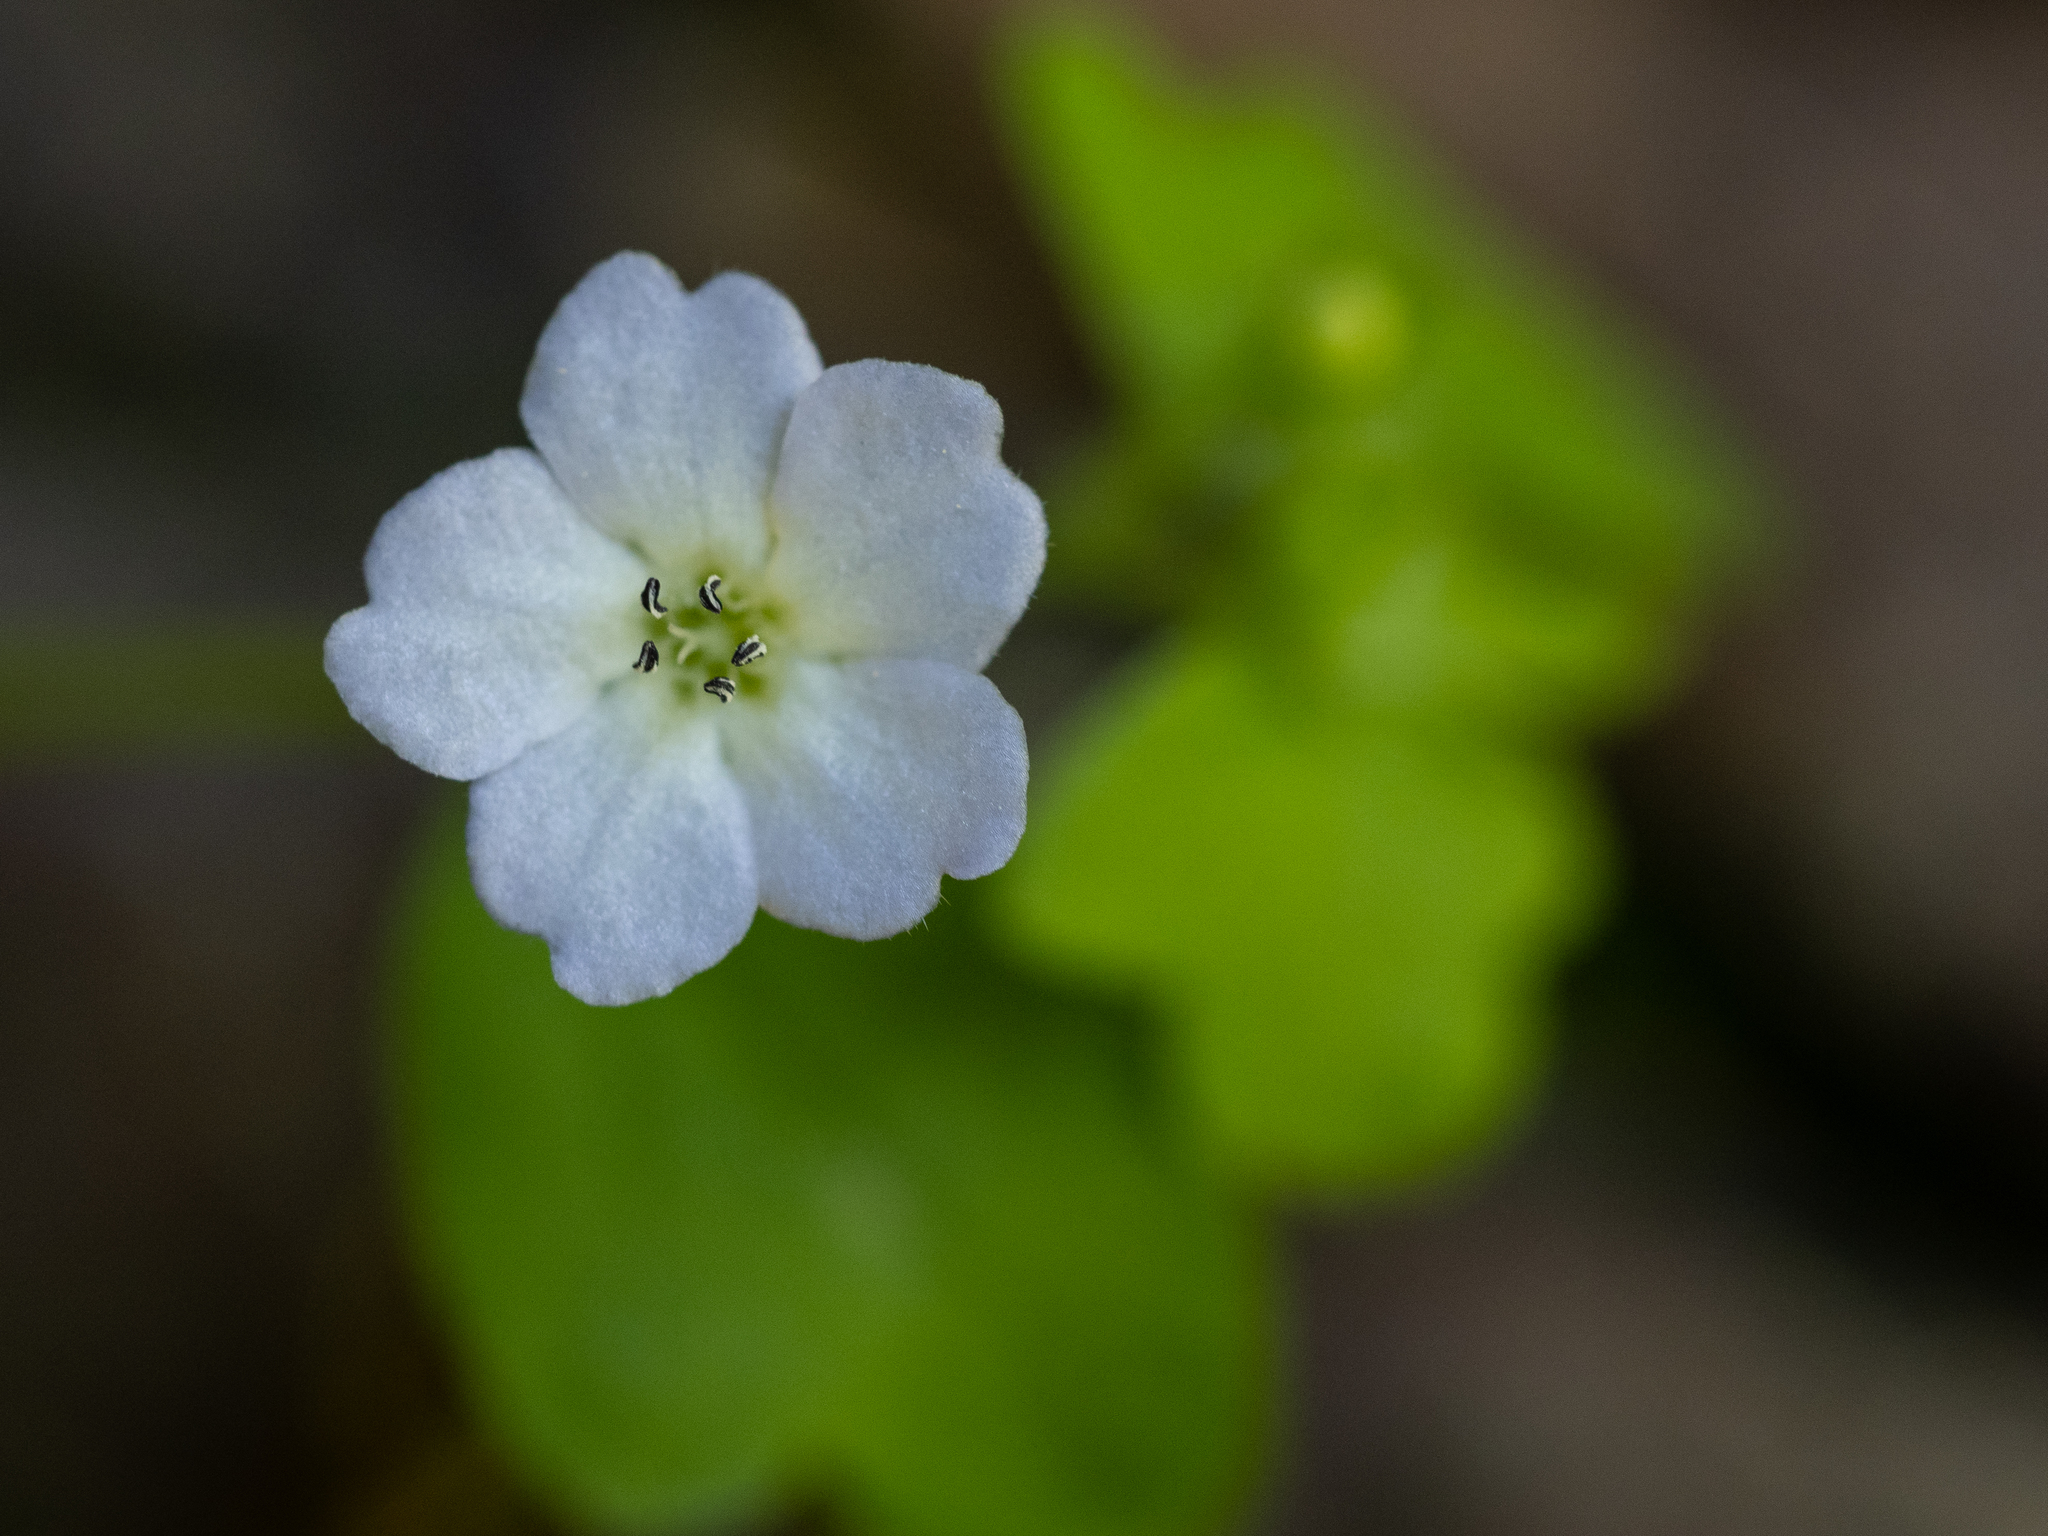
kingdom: Plantae
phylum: Tracheophyta
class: Magnoliopsida
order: Boraginales
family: Hydrophyllaceae
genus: Nemophila
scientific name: Nemophila heterophylla
